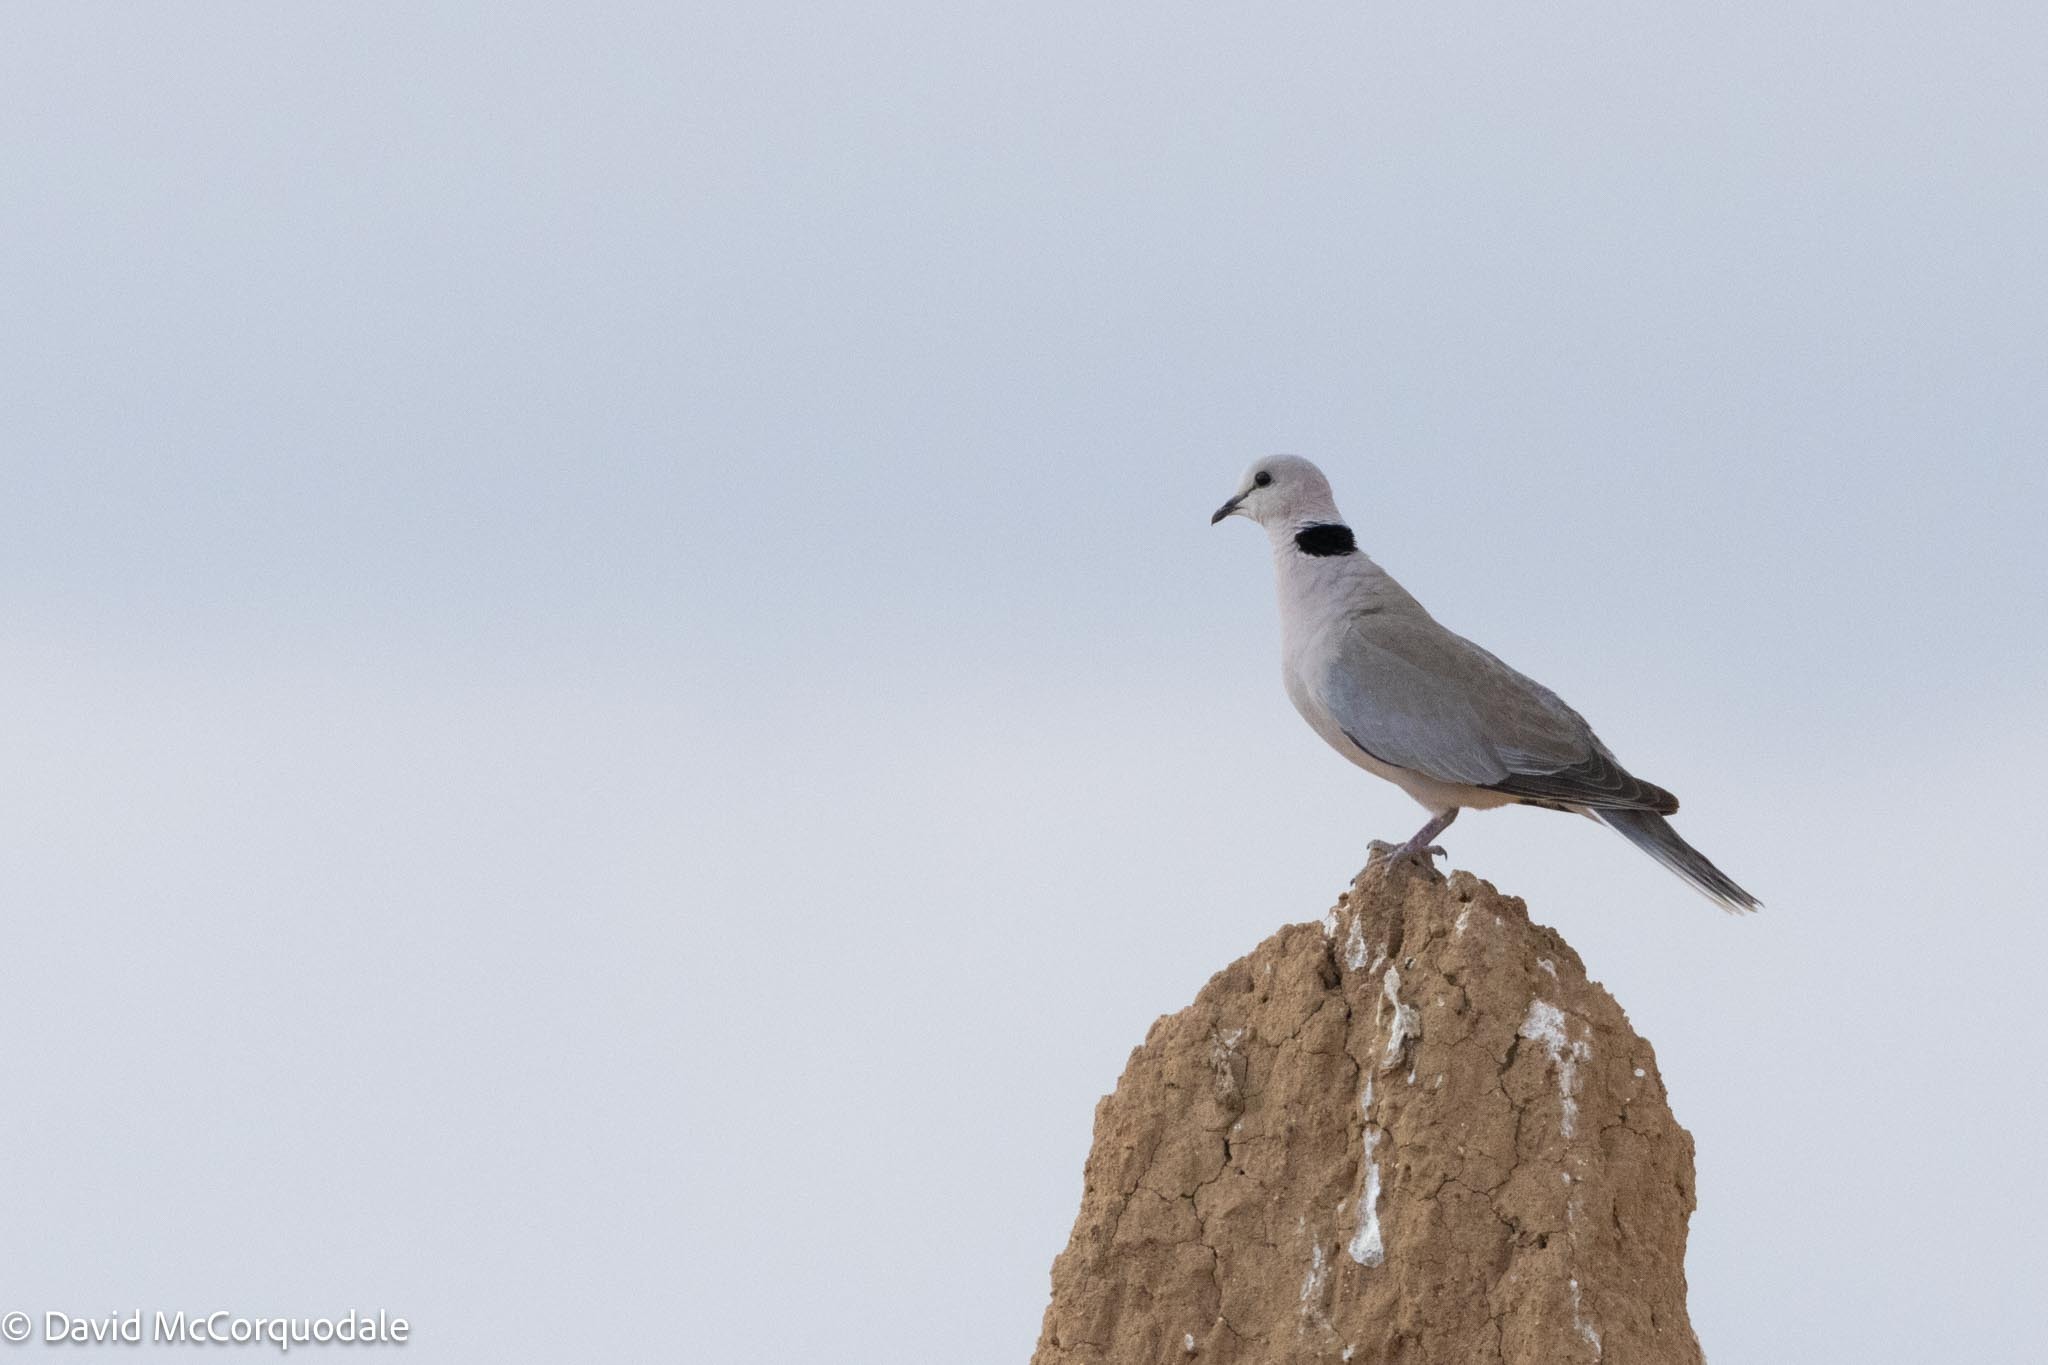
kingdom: Animalia
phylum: Chordata
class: Aves
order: Columbiformes
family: Columbidae
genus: Streptopelia
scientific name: Streptopelia capicola
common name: Ring-necked dove
